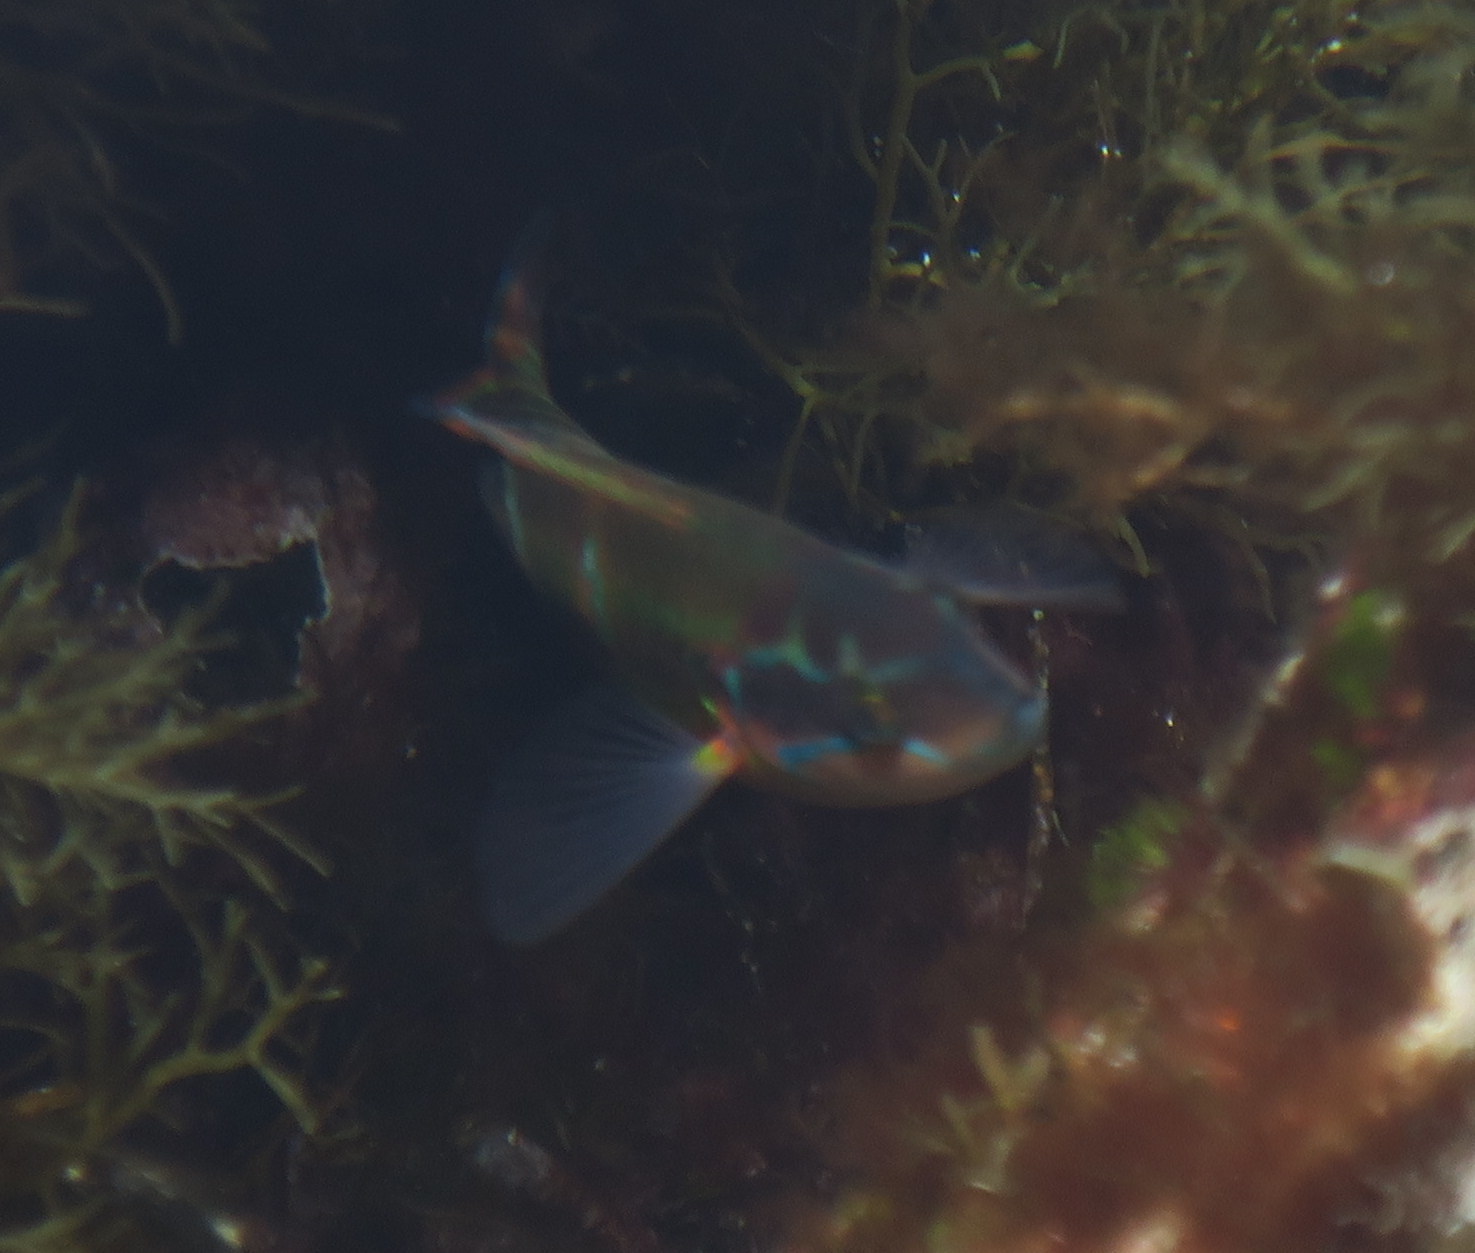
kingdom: Animalia
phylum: Chordata
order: Perciformes
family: Labridae
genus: Thalassoma
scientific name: Thalassoma pavo
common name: Ornate wrasse
